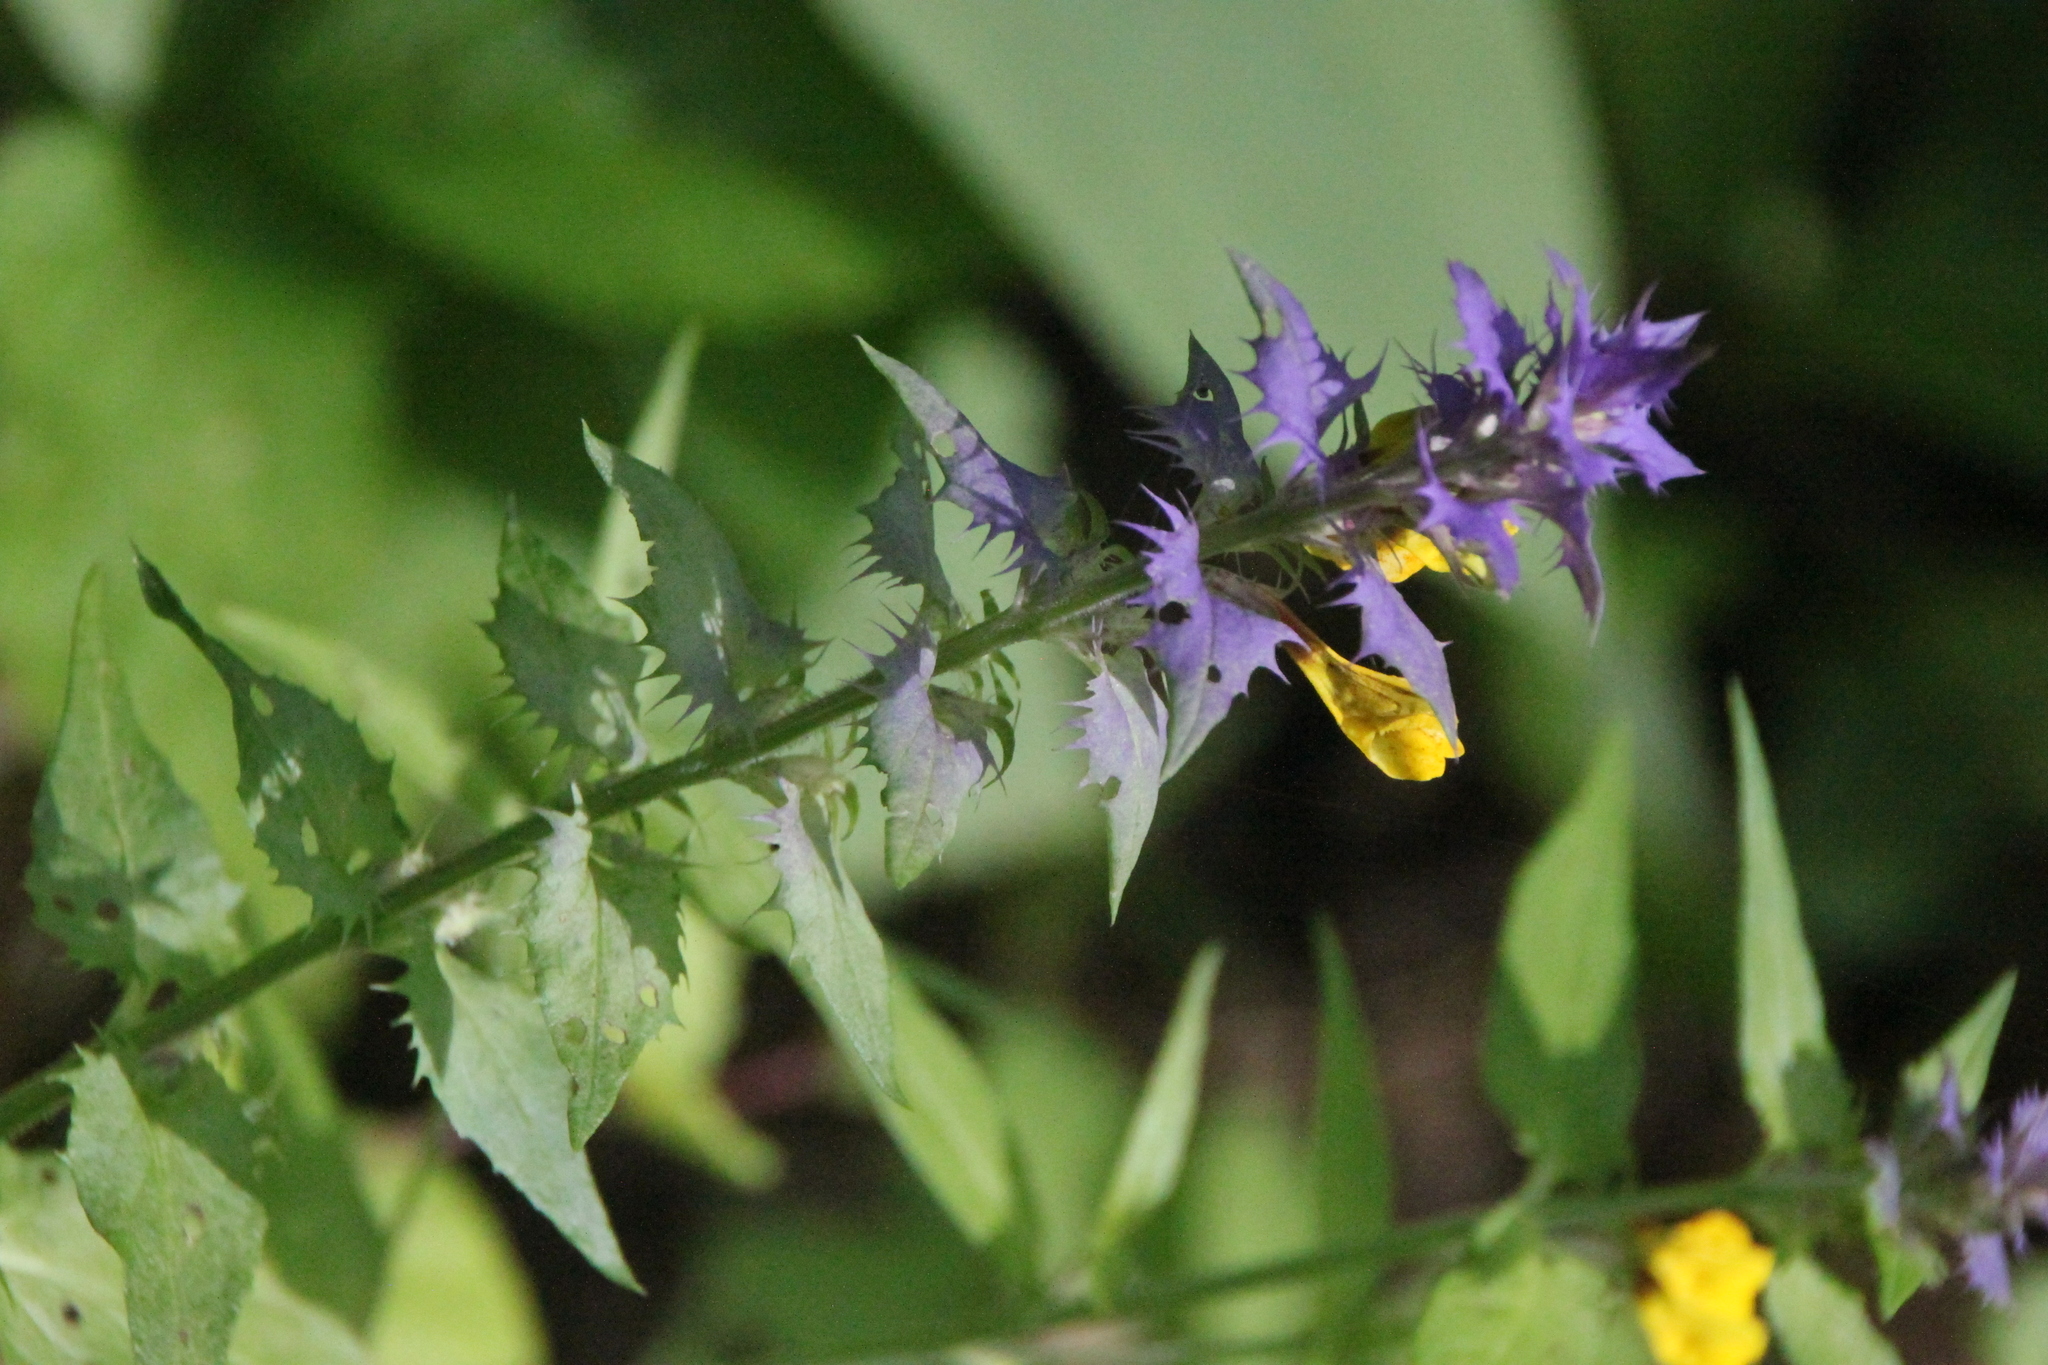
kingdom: Plantae
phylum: Tracheophyta
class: Magnoliopsida
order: Lamiales
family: Orobanchaceae
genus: Melampyrum
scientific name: Melampyrum nemorosum
